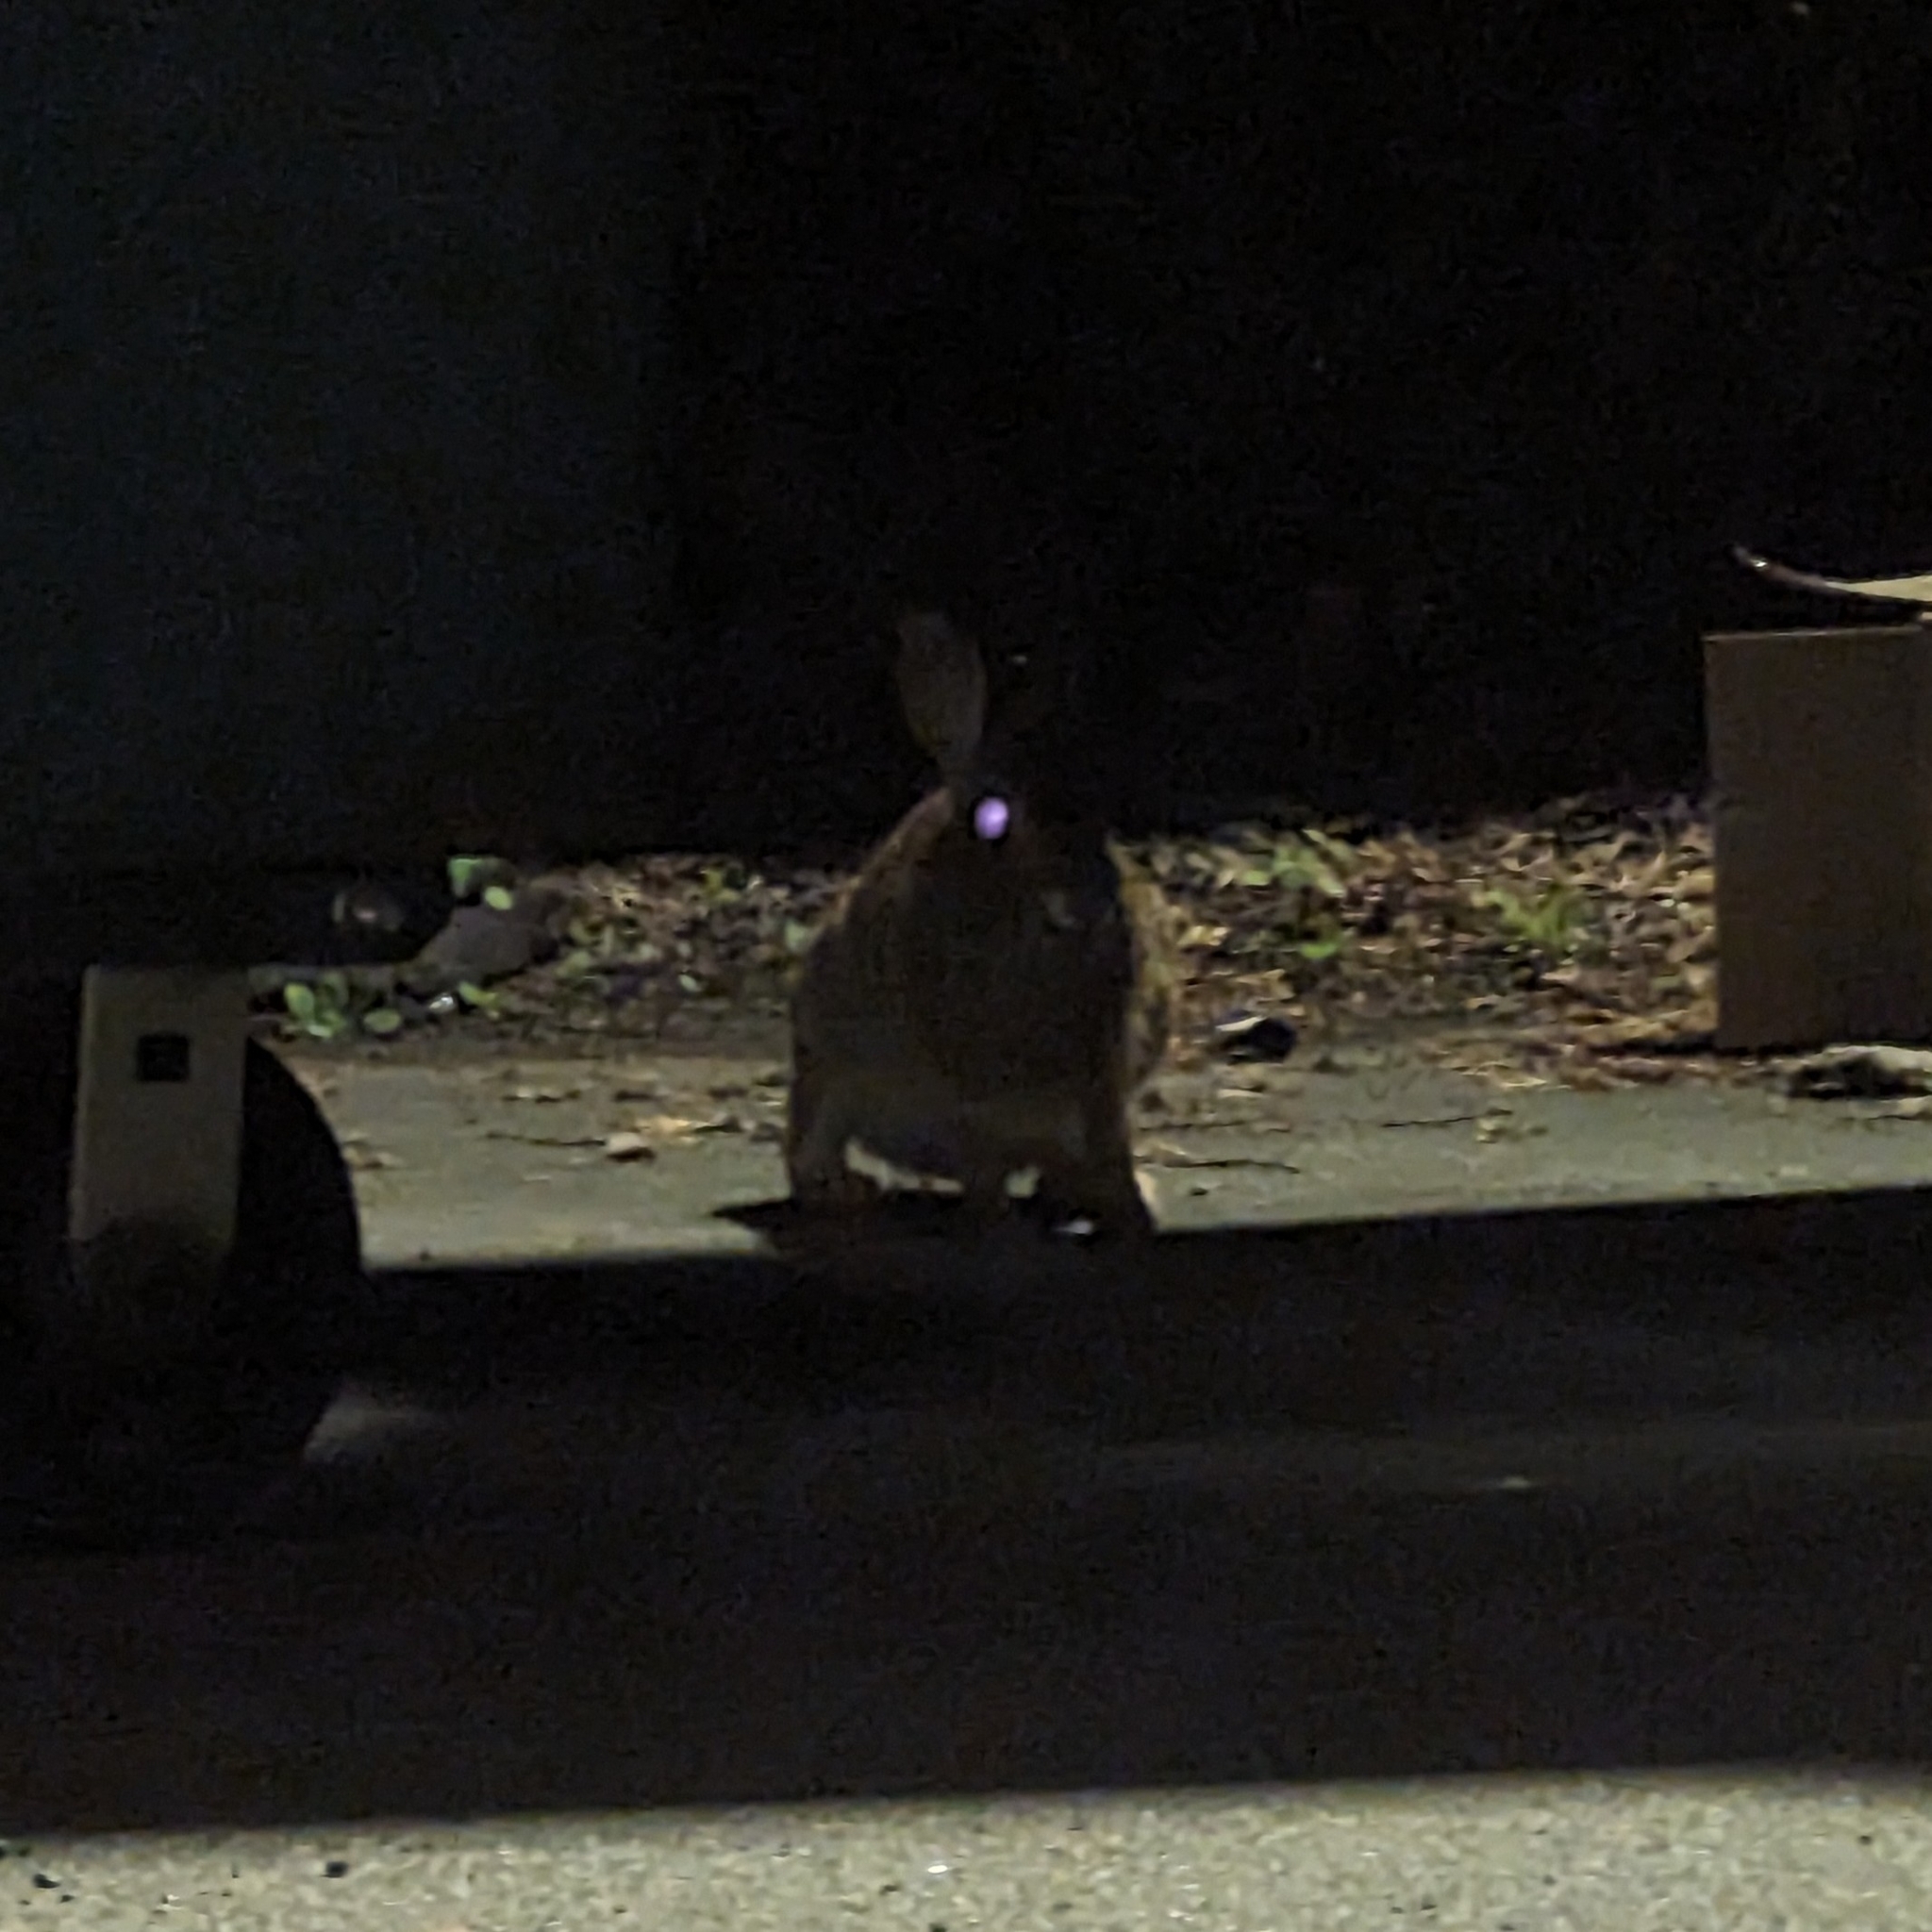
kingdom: Animalia
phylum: Chordata
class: Mammalia
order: Lagomorpha
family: Leporidae
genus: Sylvilagus
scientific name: Sylvilagus floridanus
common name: Eastern cottontail
